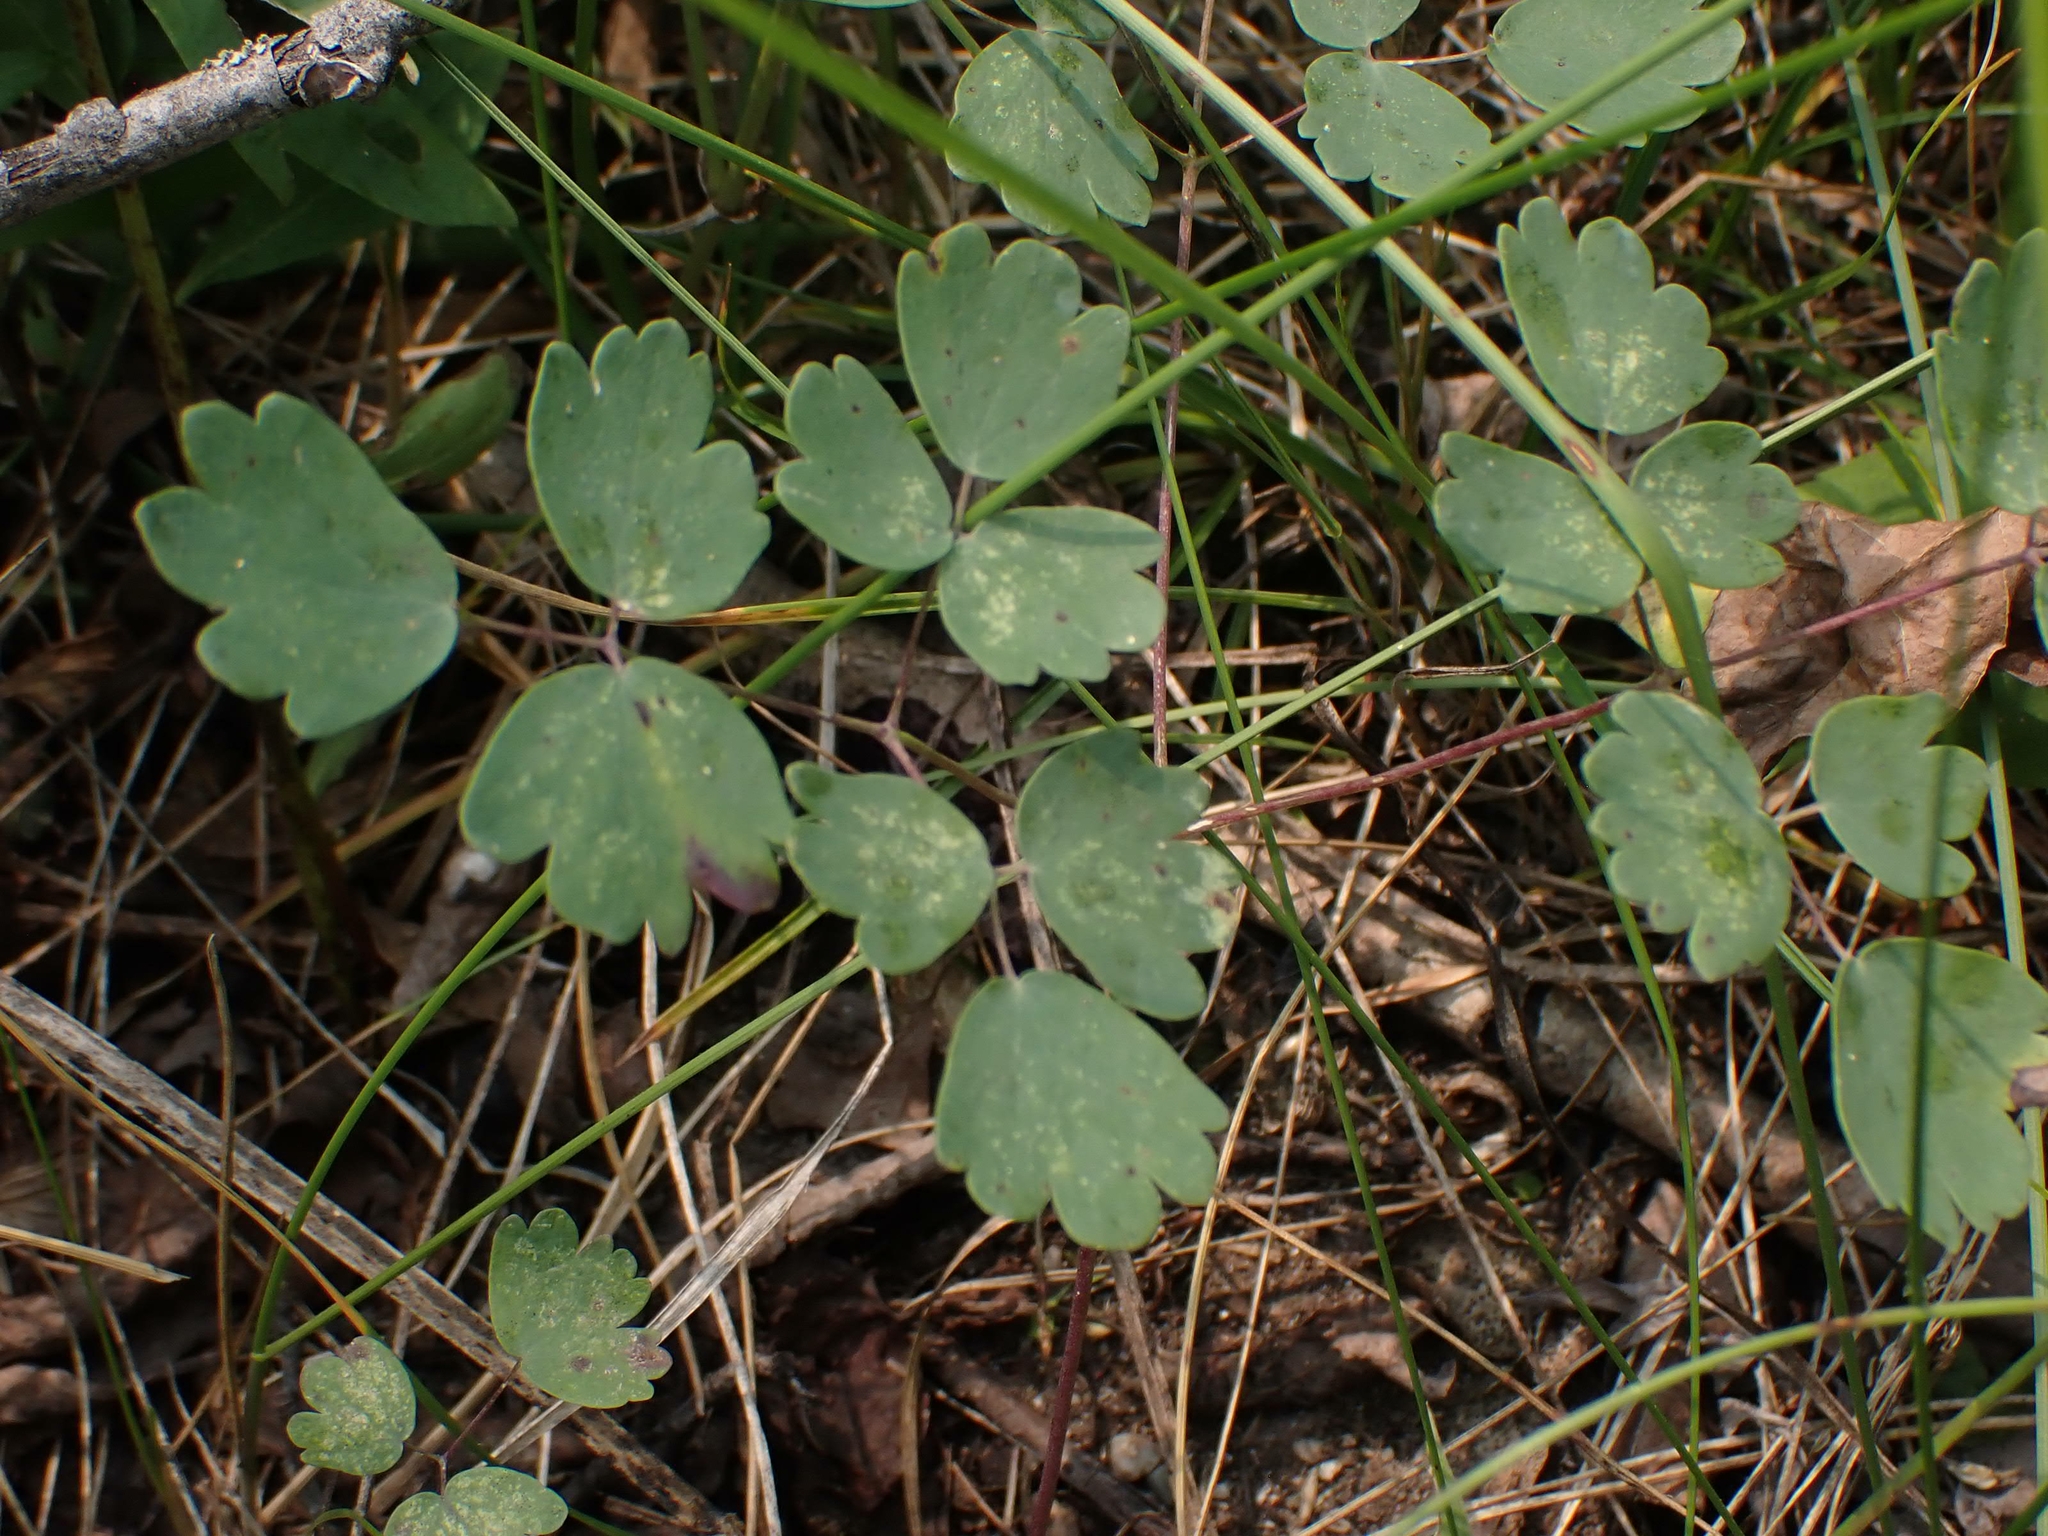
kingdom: Plantae
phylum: Tracheophyta
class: Magnoliopsida
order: Ranunculales
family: Ranunculaceae
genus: Thalictrum
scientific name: Thalictrum venulosum
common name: Early meadow-rue
